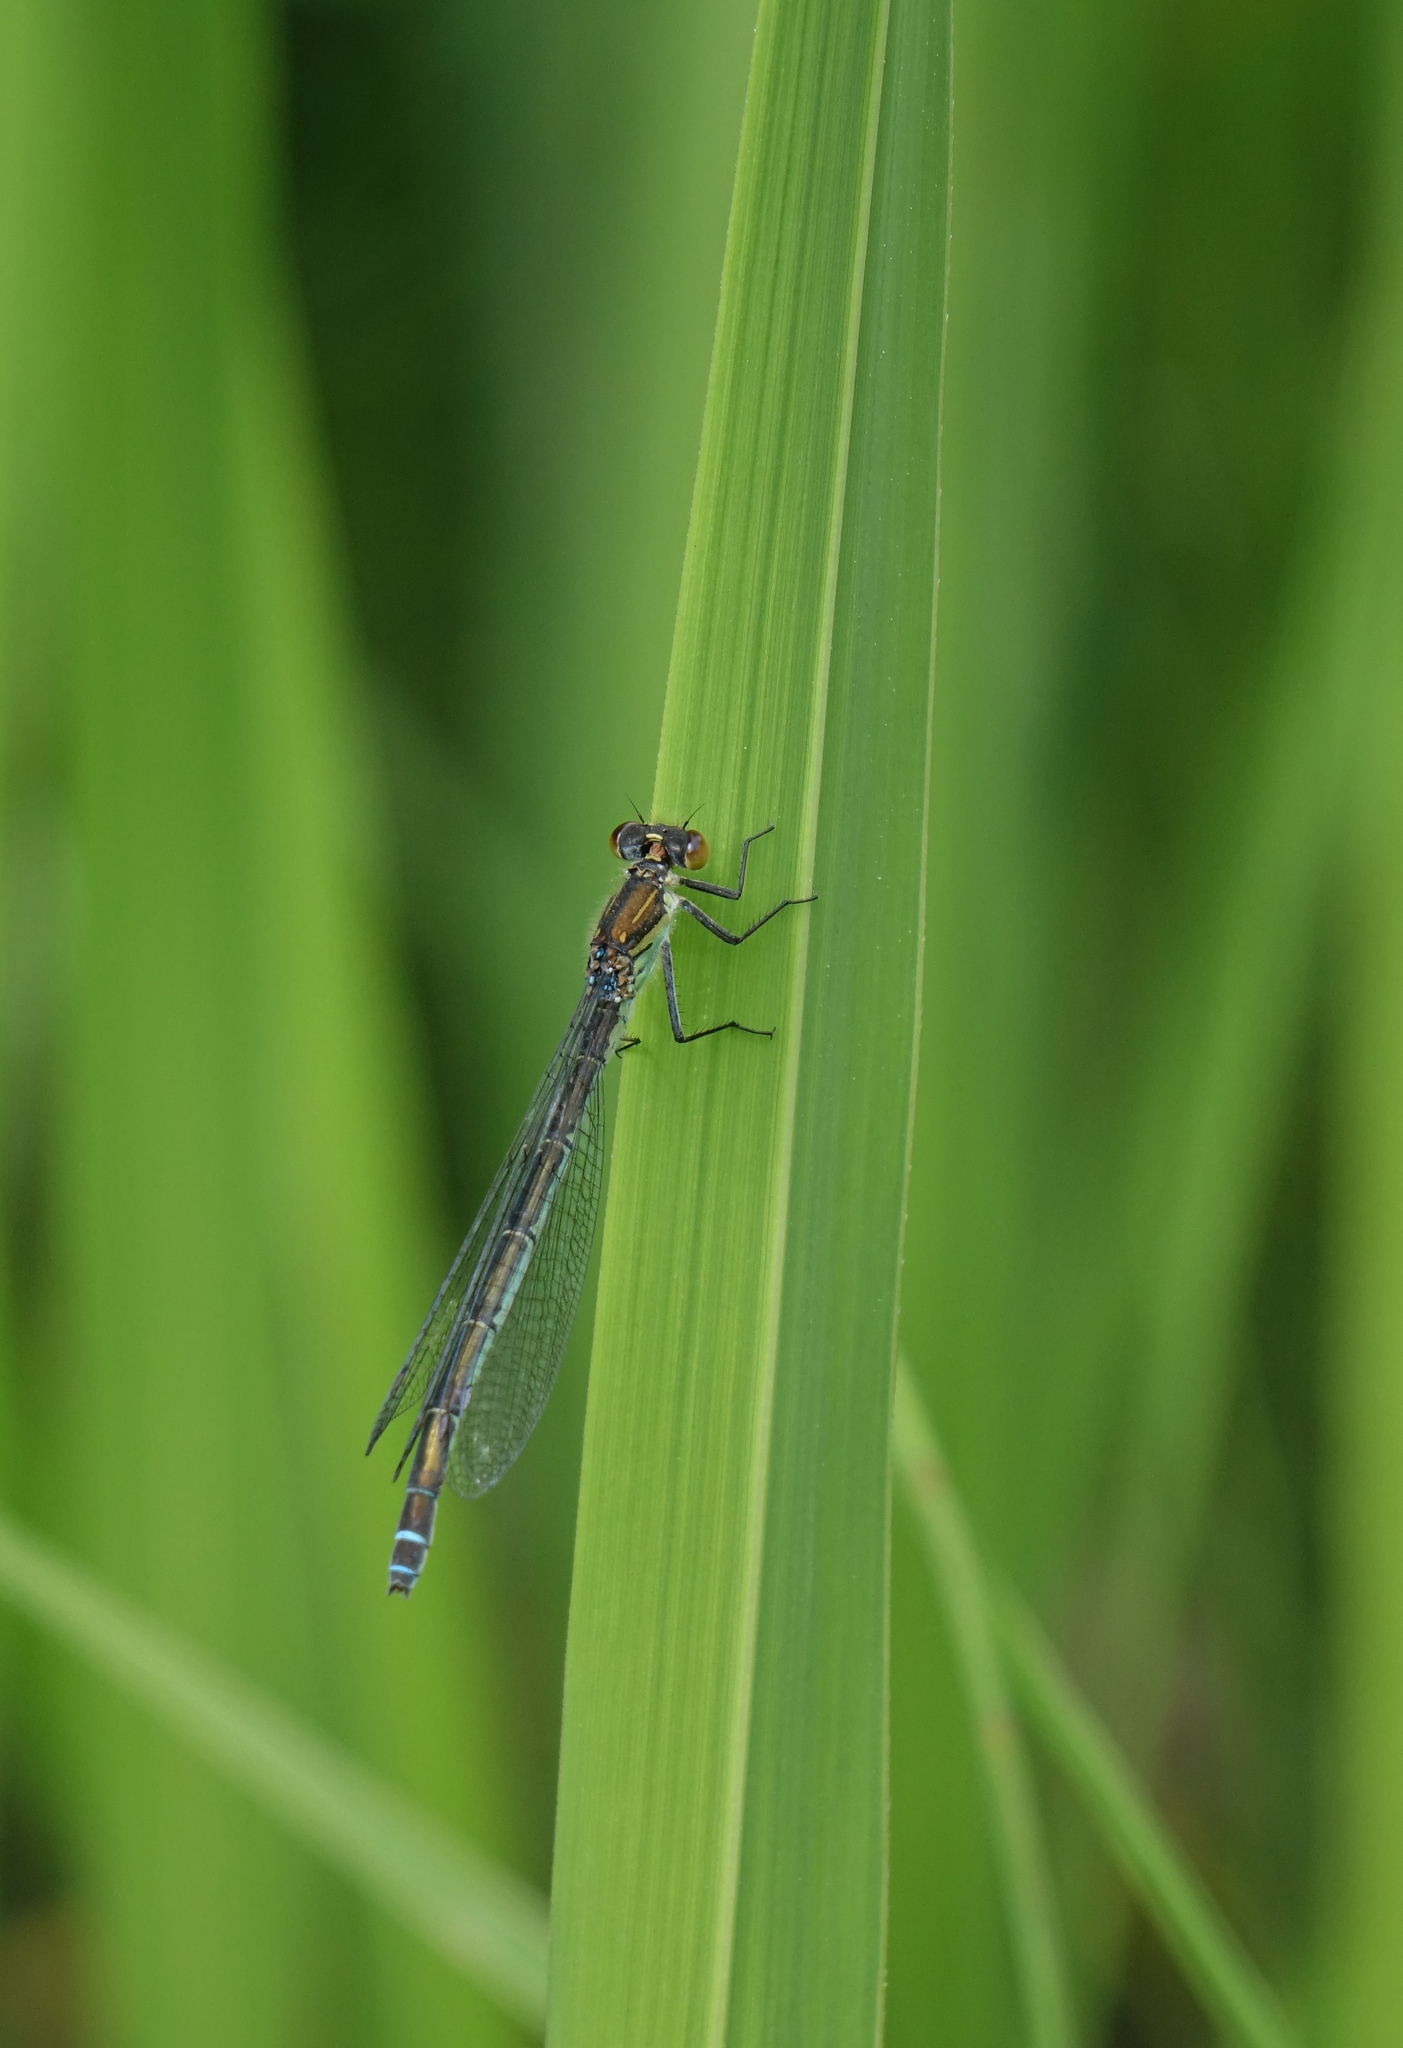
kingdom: Animalia
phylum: Arthropoda
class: Insecta
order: Odonata
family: Coenagrionidae
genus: Erythromma
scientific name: Erythromma najas
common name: Red-eyed damselfly
